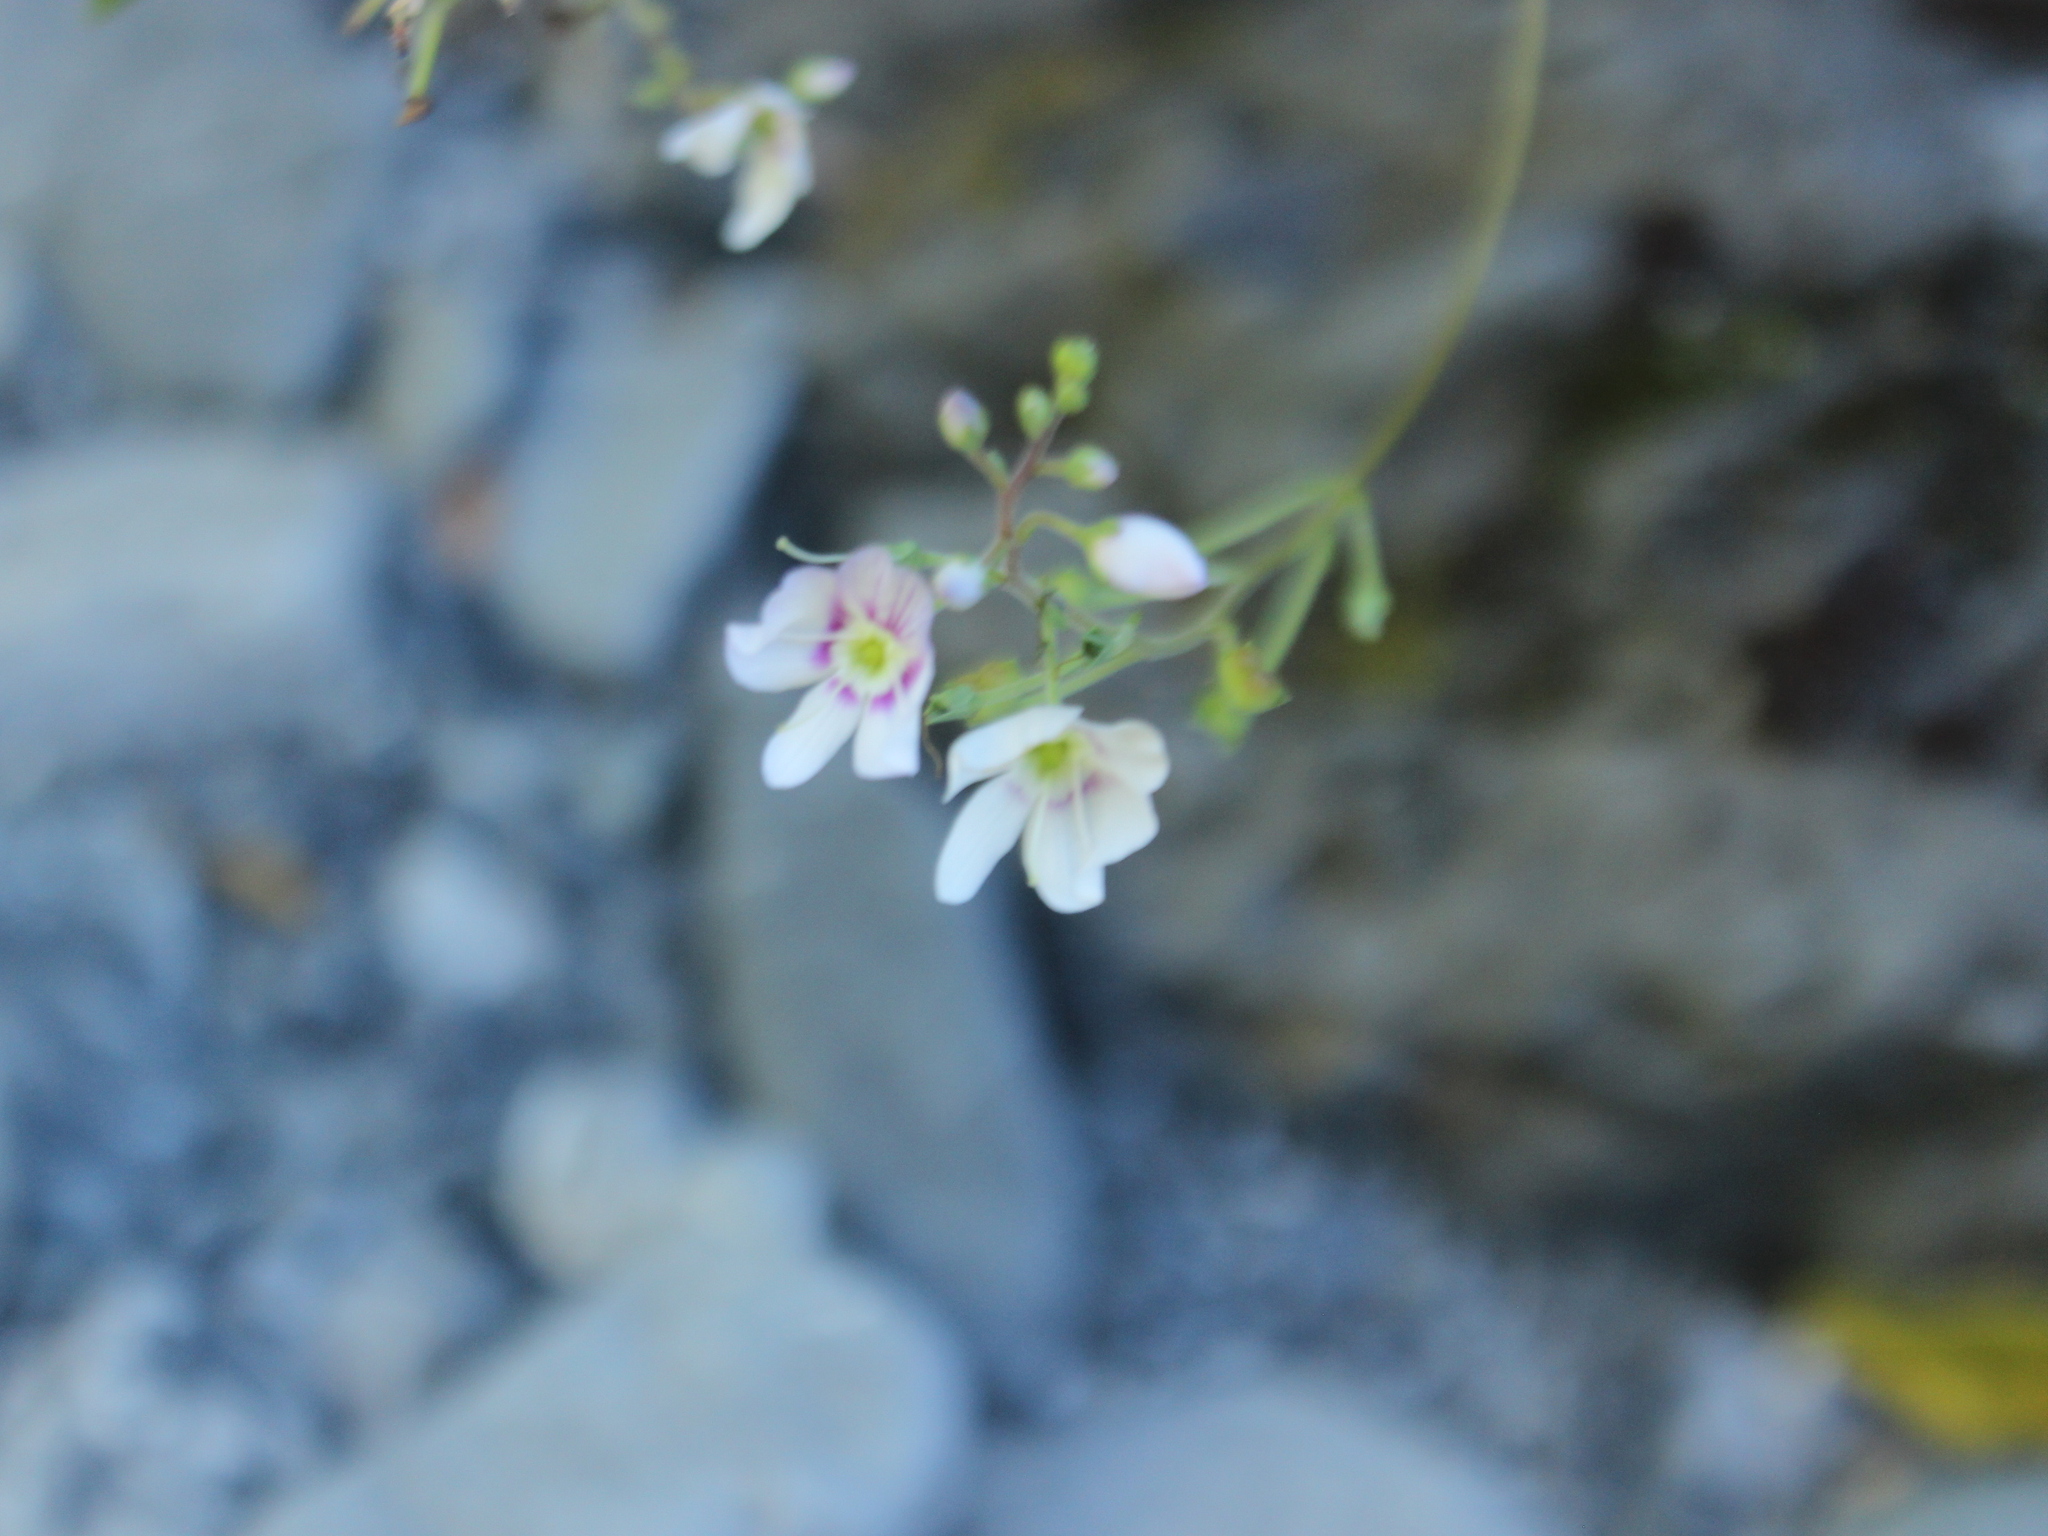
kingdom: Plantae
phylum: Tracheophyta
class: Magnoliopsida
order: Lamiales
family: Plantaginaceae
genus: Veronica
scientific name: Veronica lanceolata
